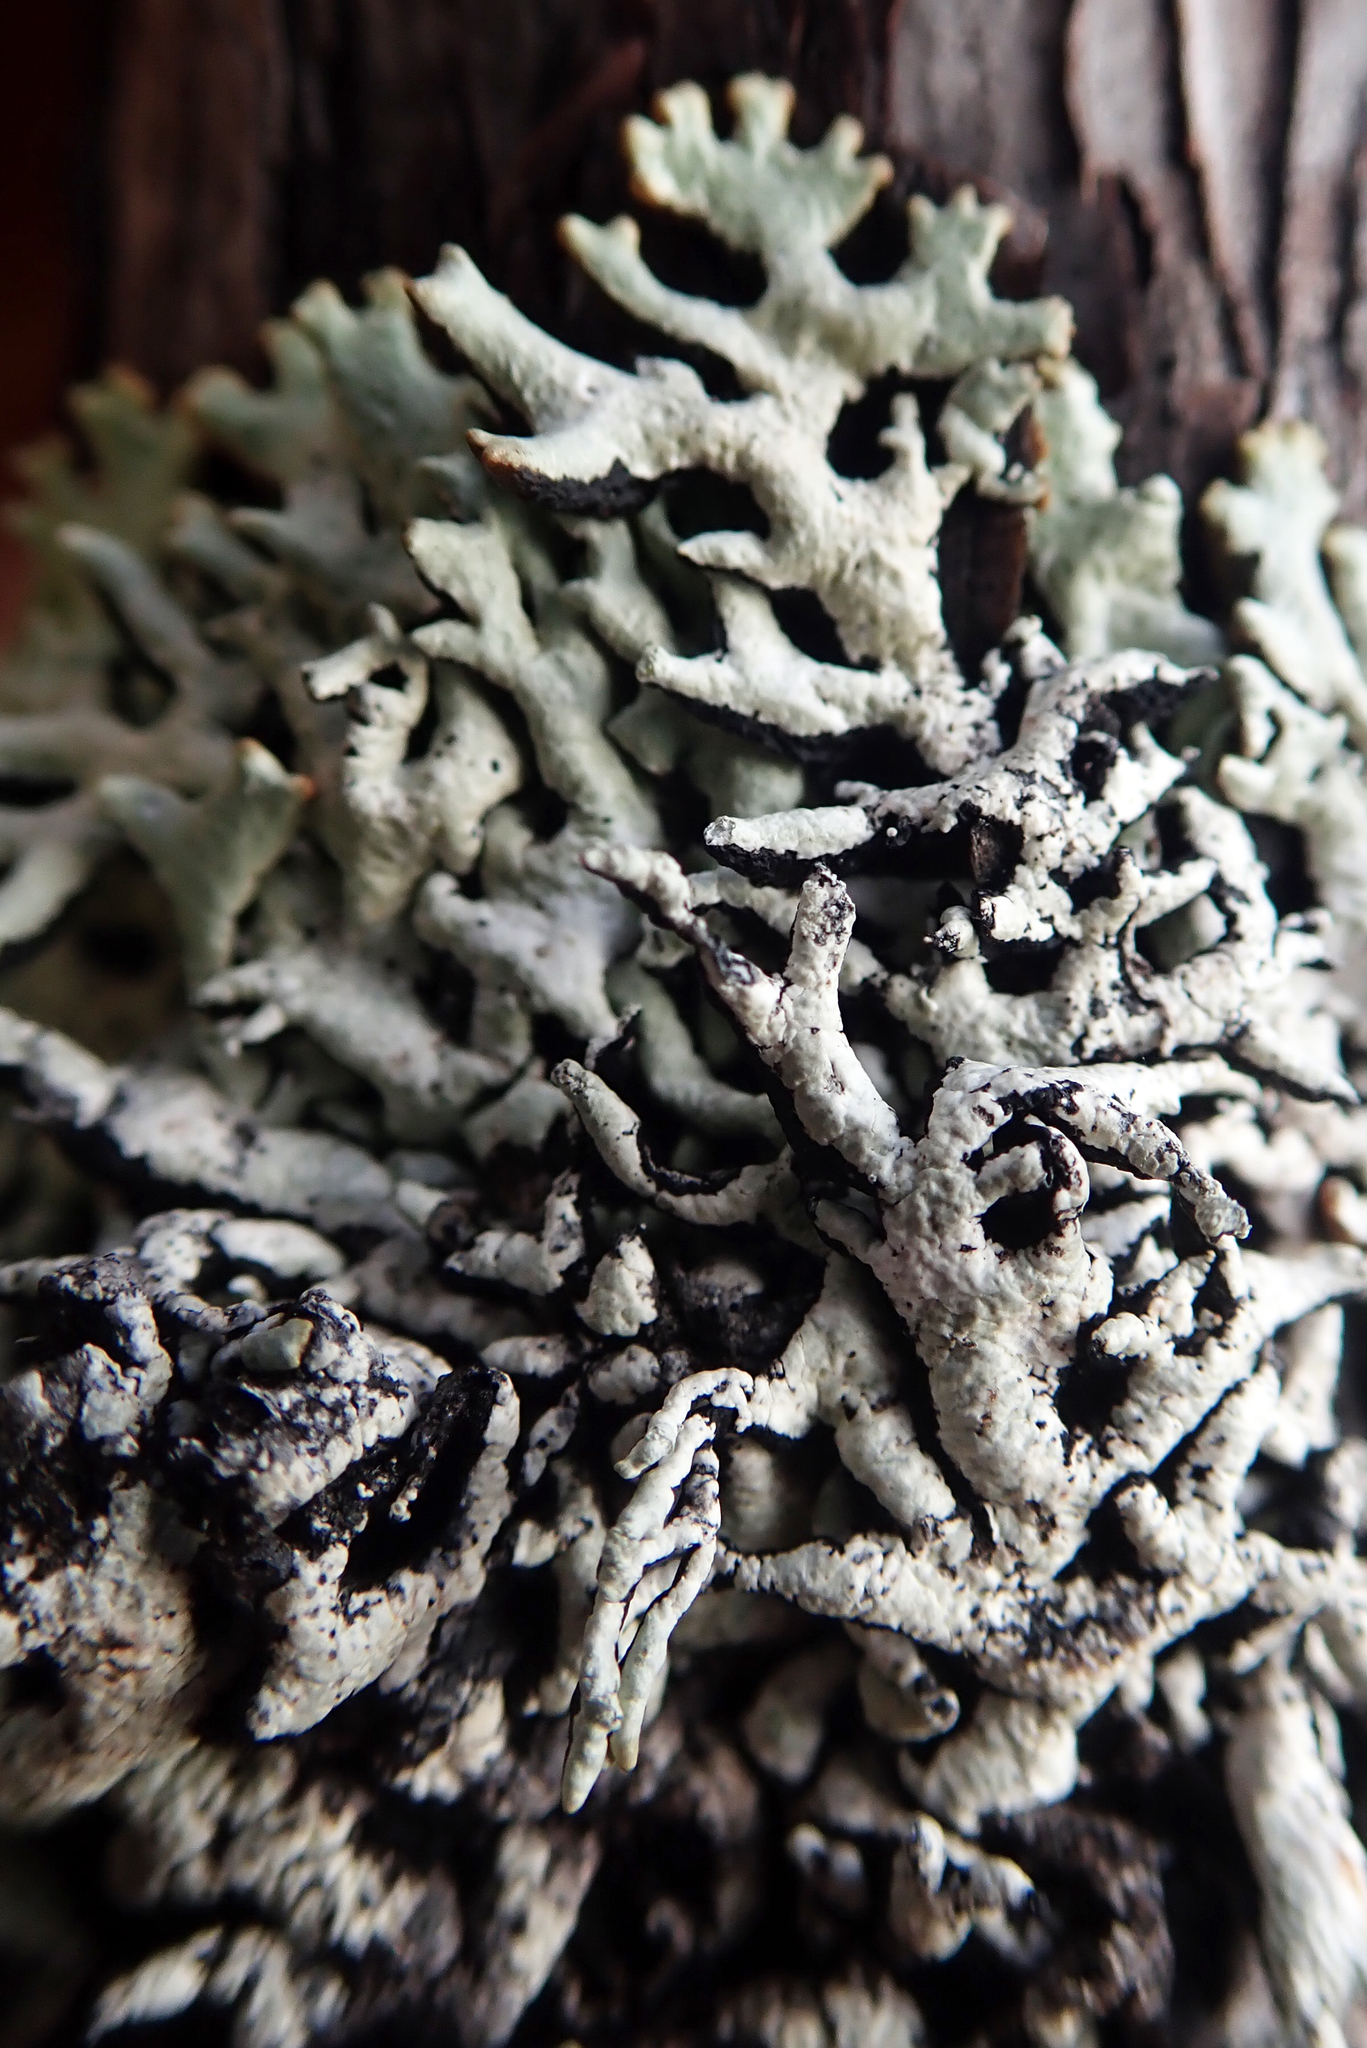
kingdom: Fungi
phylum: Ascomycota
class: Lecanoromycetes
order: Lecanorales
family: Parmeliaceae
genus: Hypogymnia
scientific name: Hypogymnia subphysodes
